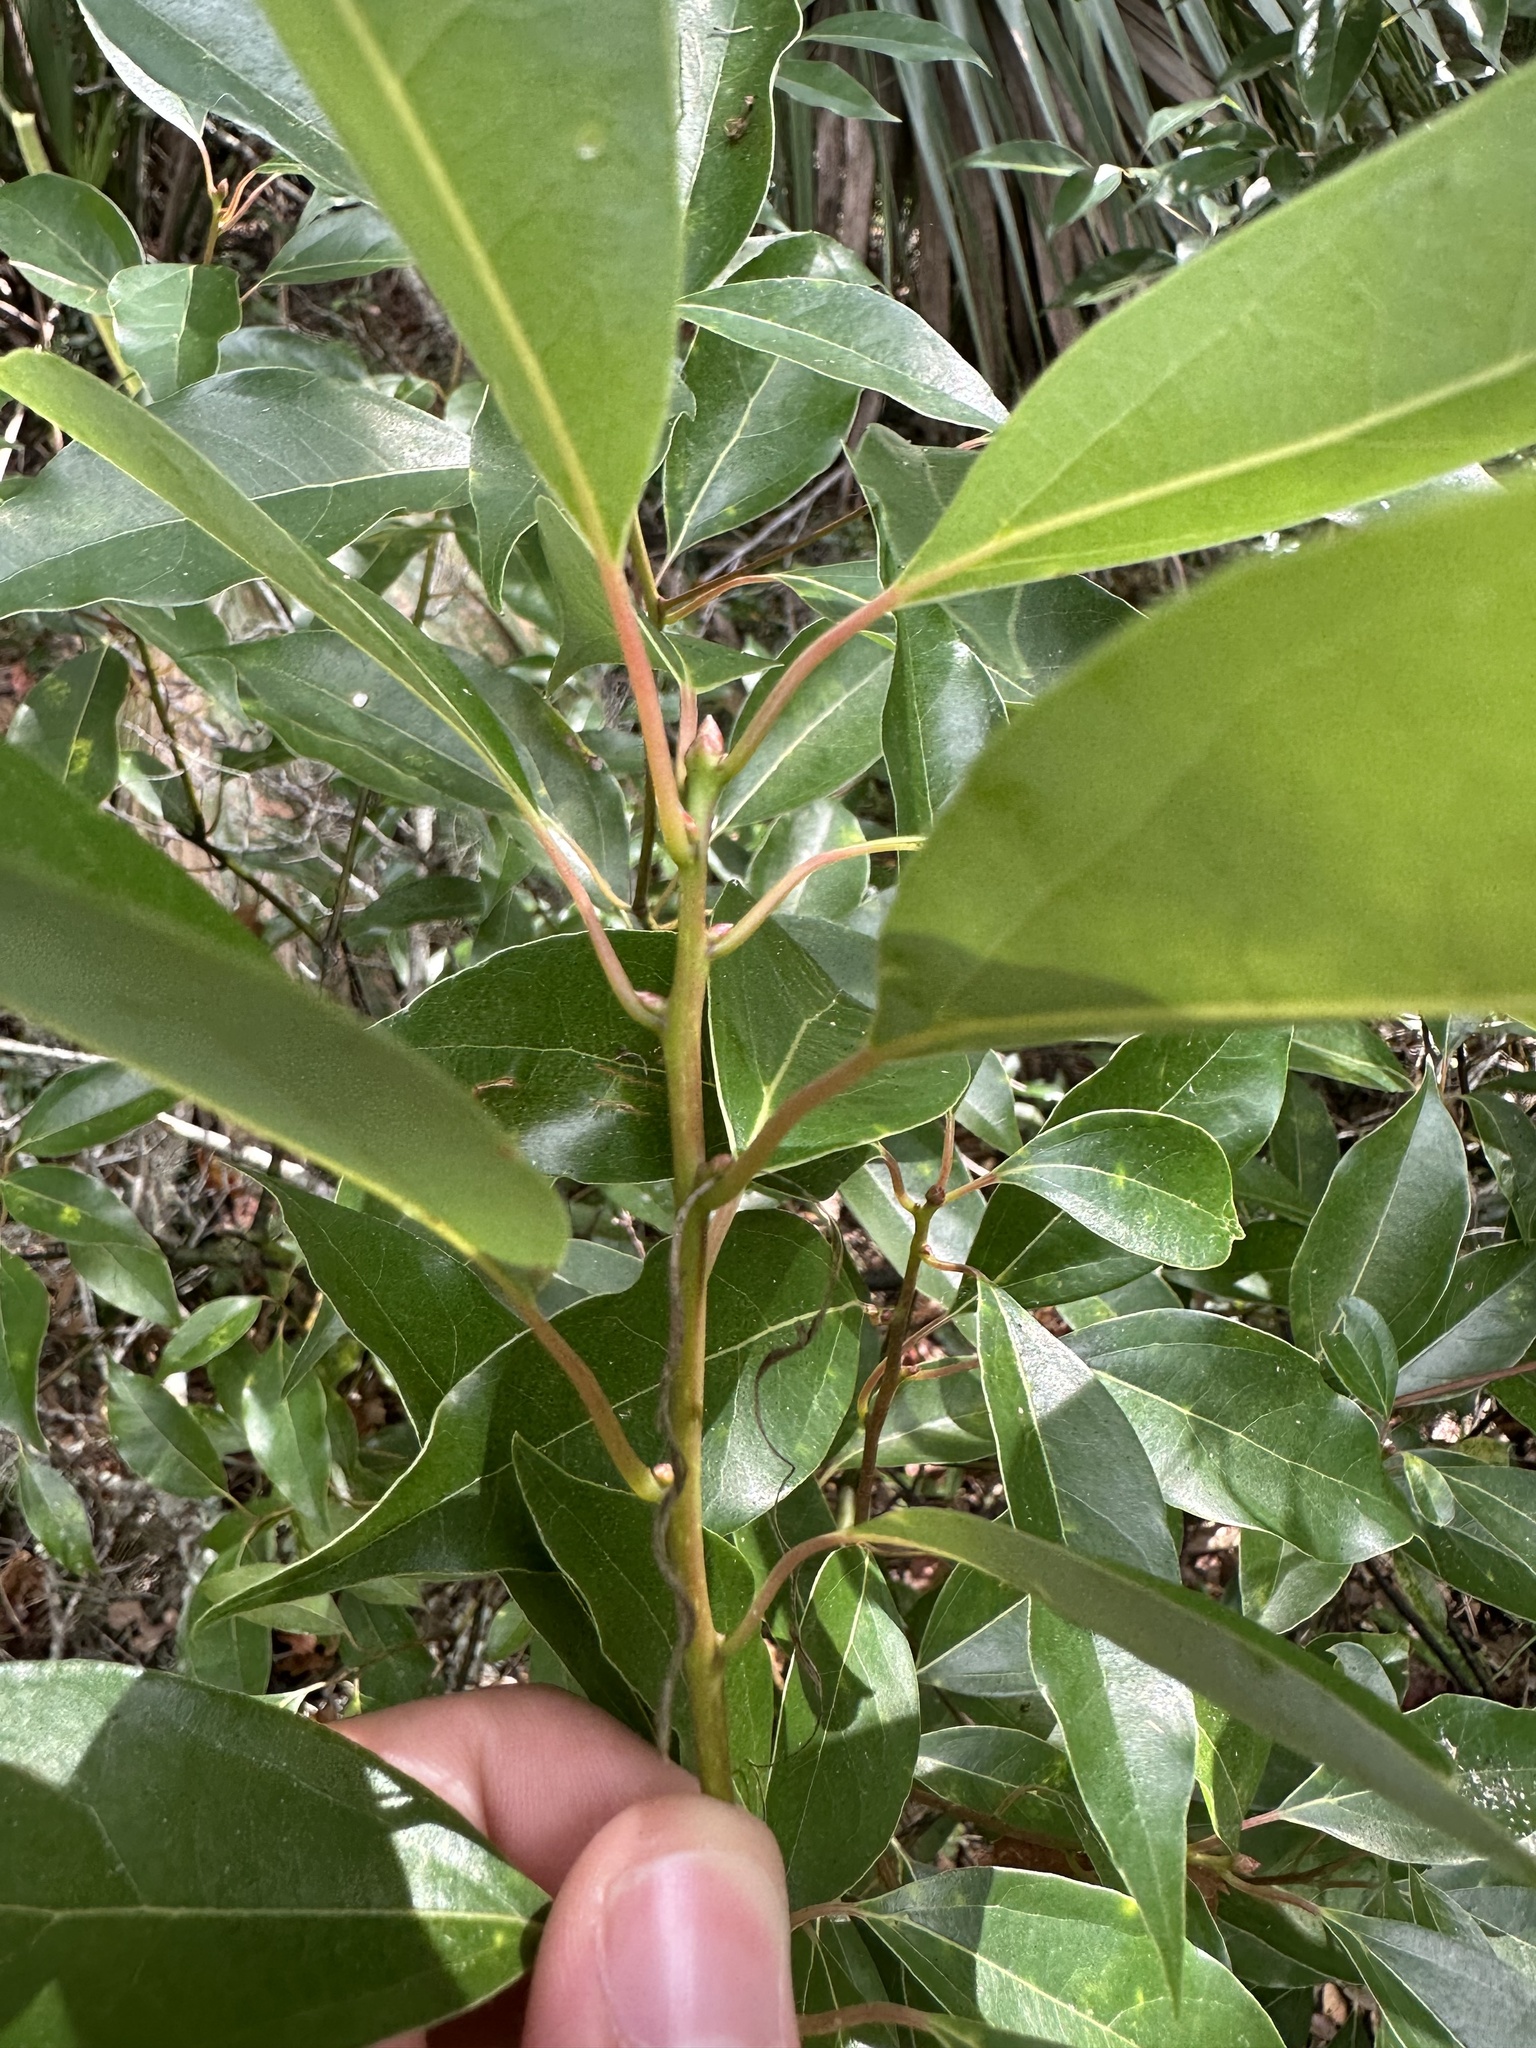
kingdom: Plantae
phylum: Tracheophyta
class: Magnoliopsida
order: Laurales
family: Lauraceae
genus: Cinnamomum
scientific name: Cinnamomum camphora
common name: Camphortree
